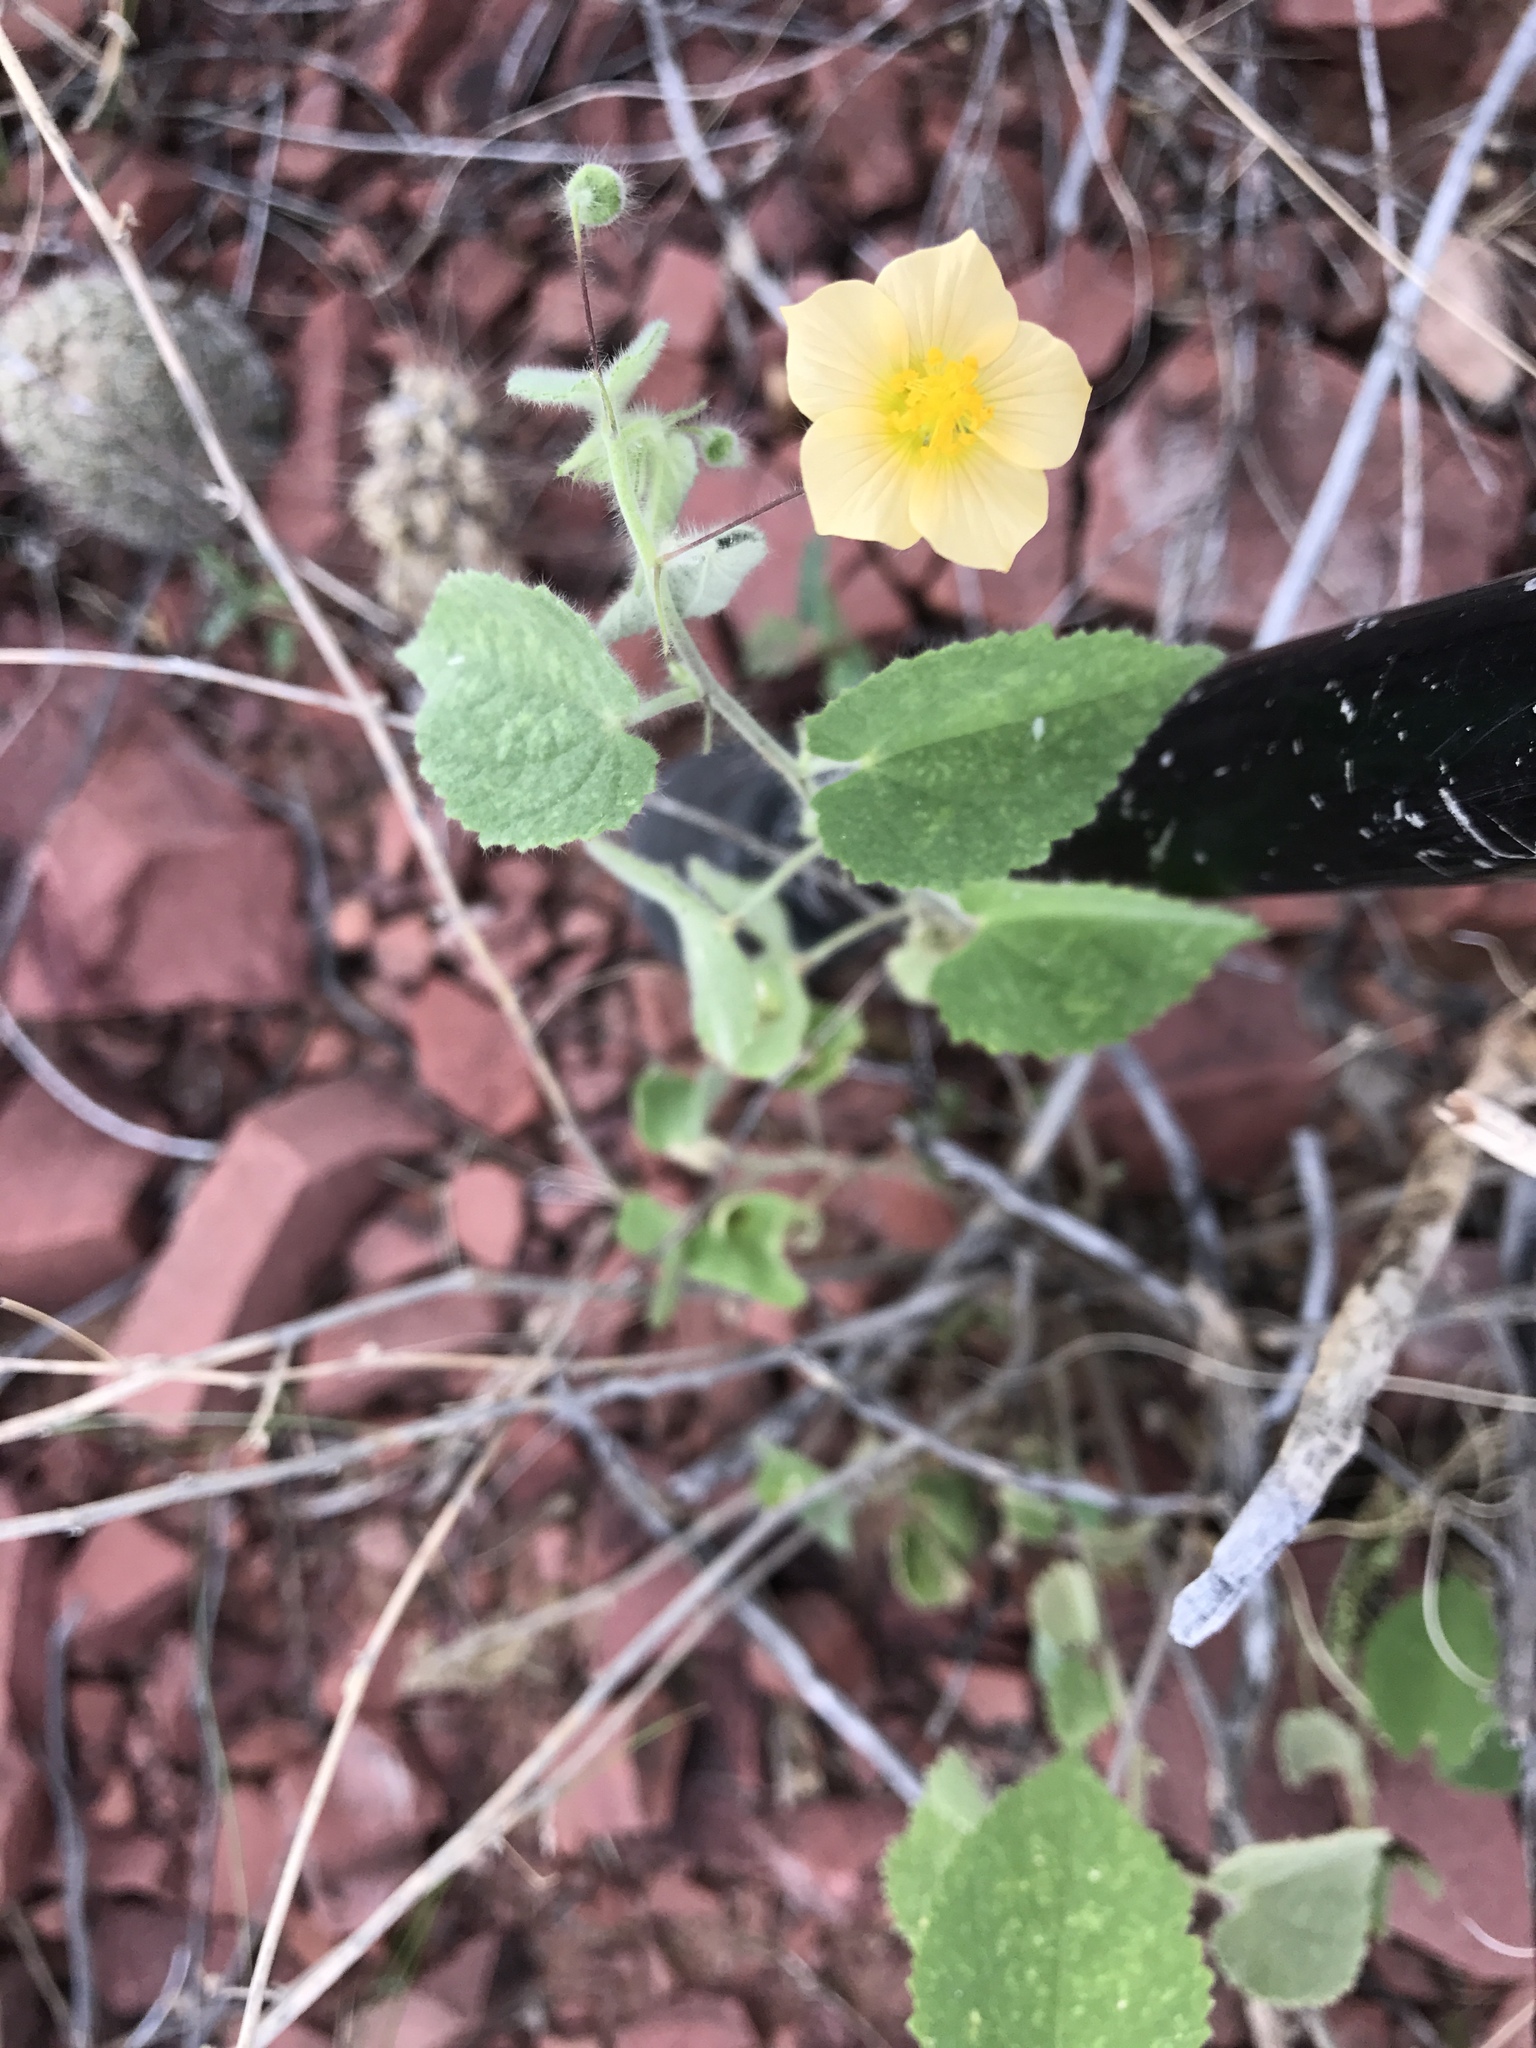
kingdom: Plantae
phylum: Tracheophyta
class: Magnoliopsida
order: Malvales
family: Malvaceae
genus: Herissantia
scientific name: Herissantia crispa
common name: Bladdermallow
